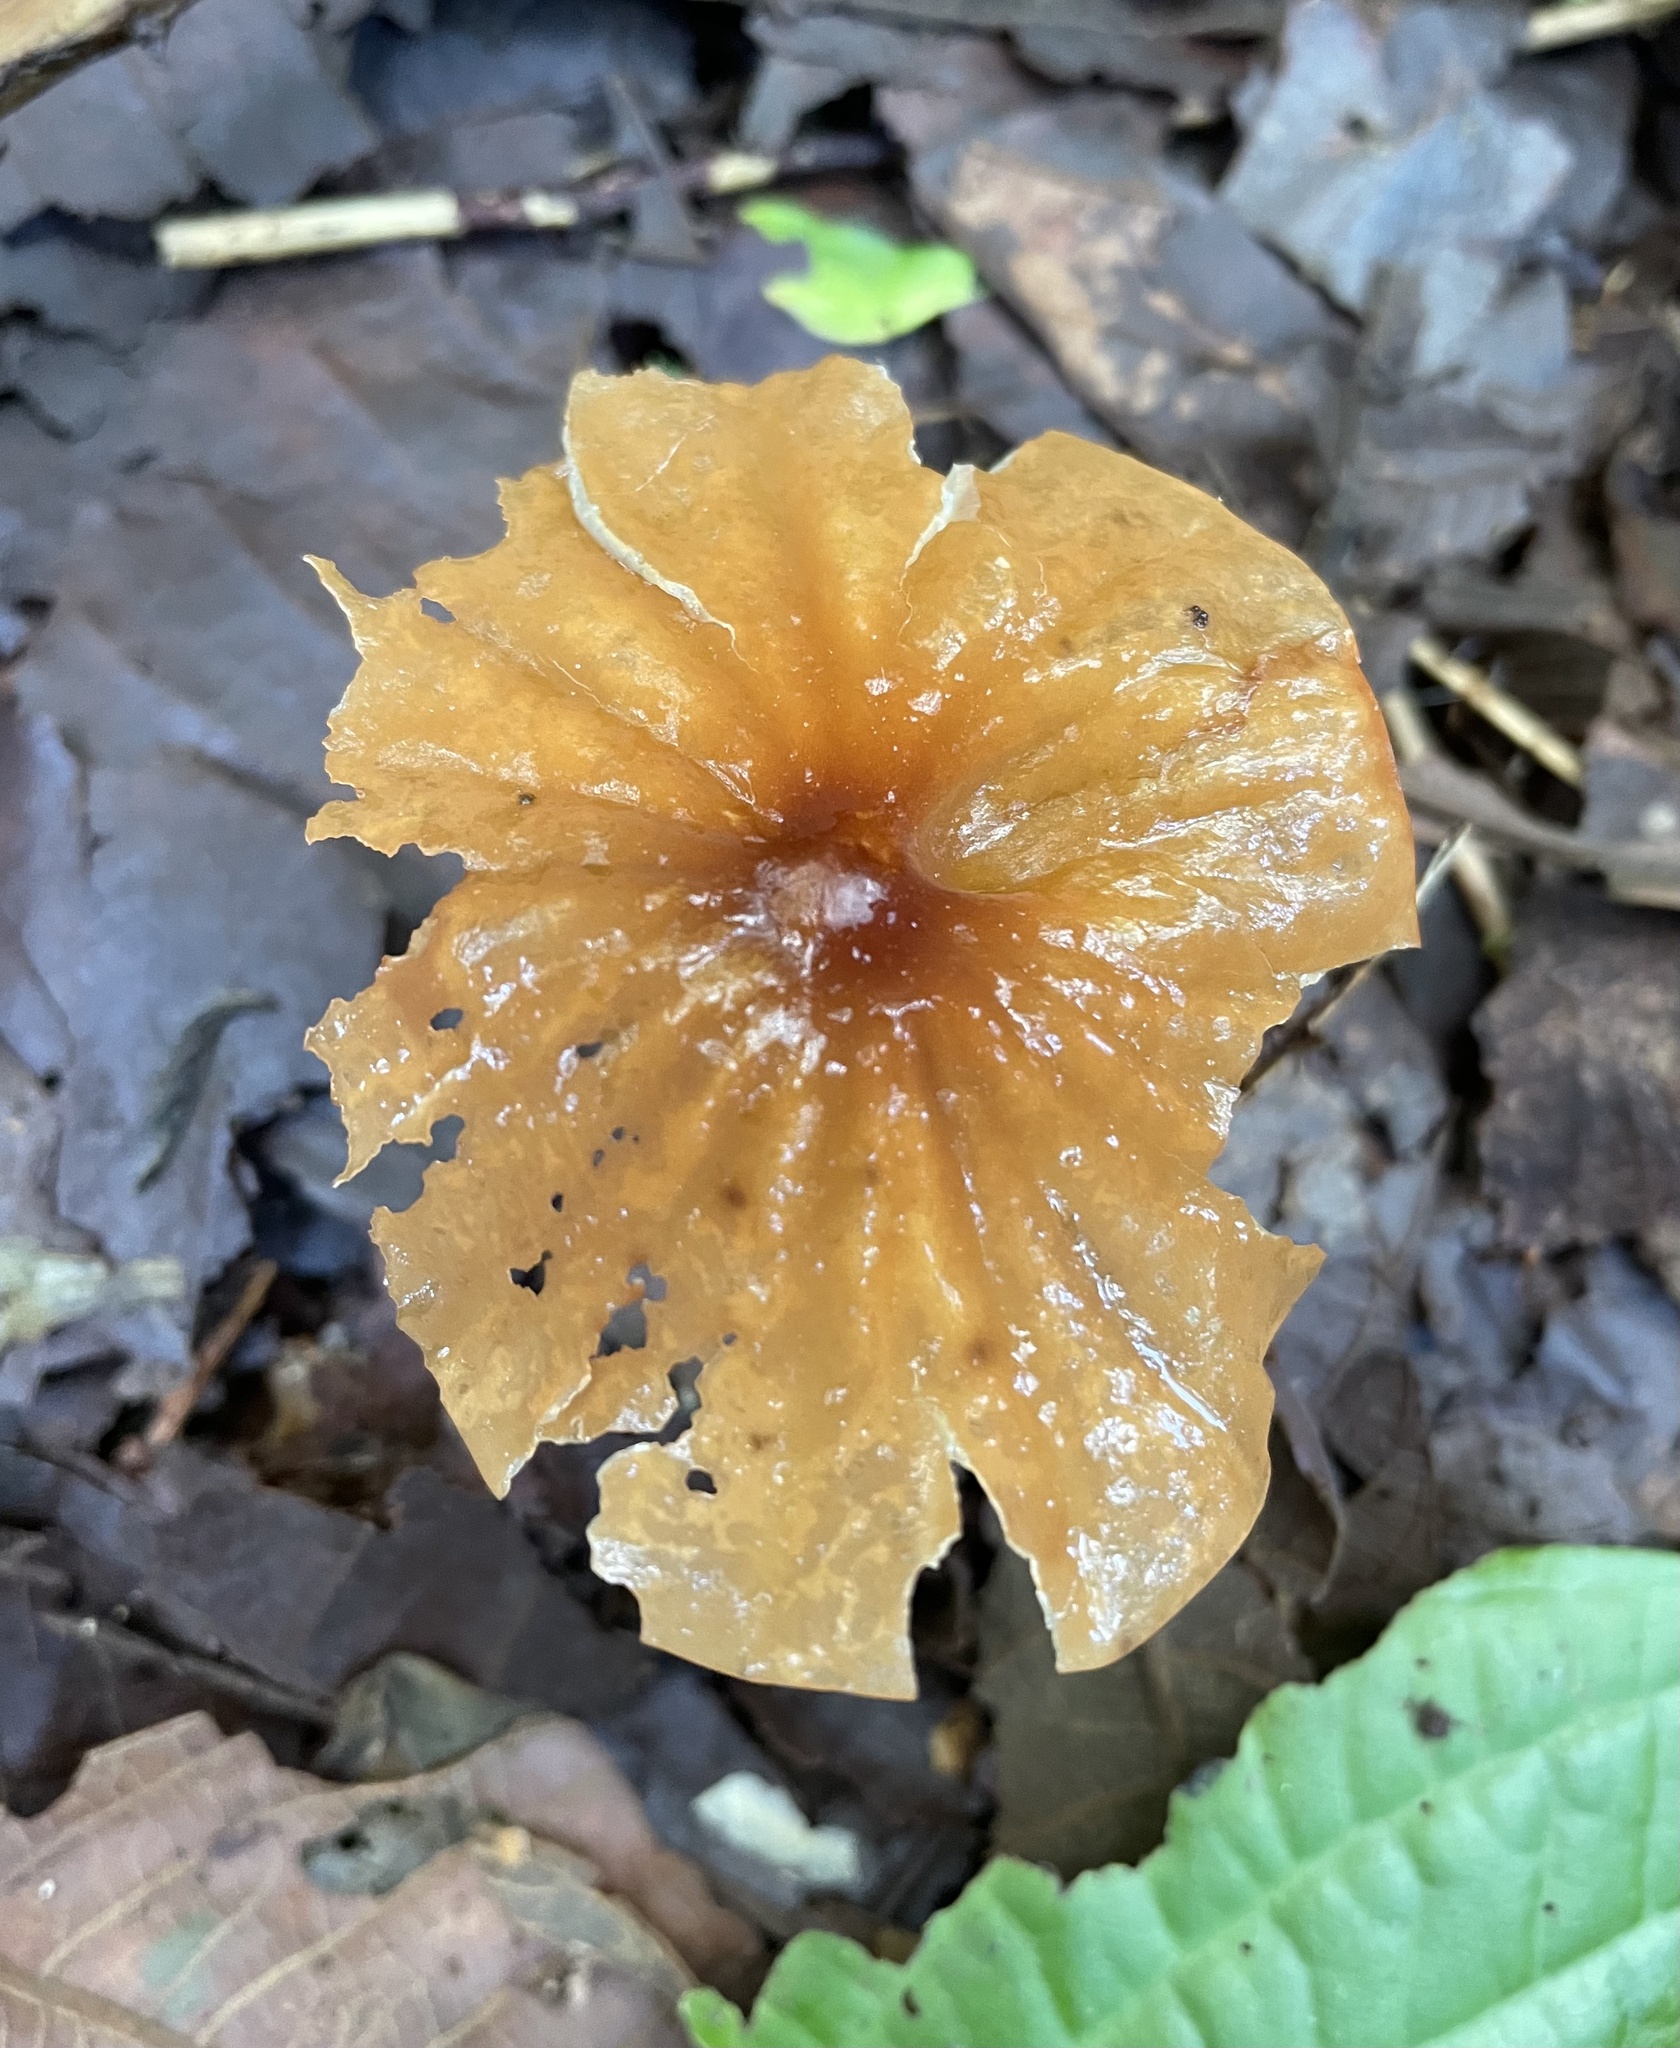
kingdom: Fungi
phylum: Basidiomycota
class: Agaricomycetes
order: Agaricales
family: Marasmiaceae
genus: Marasmius
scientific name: Marasmius berteroi
